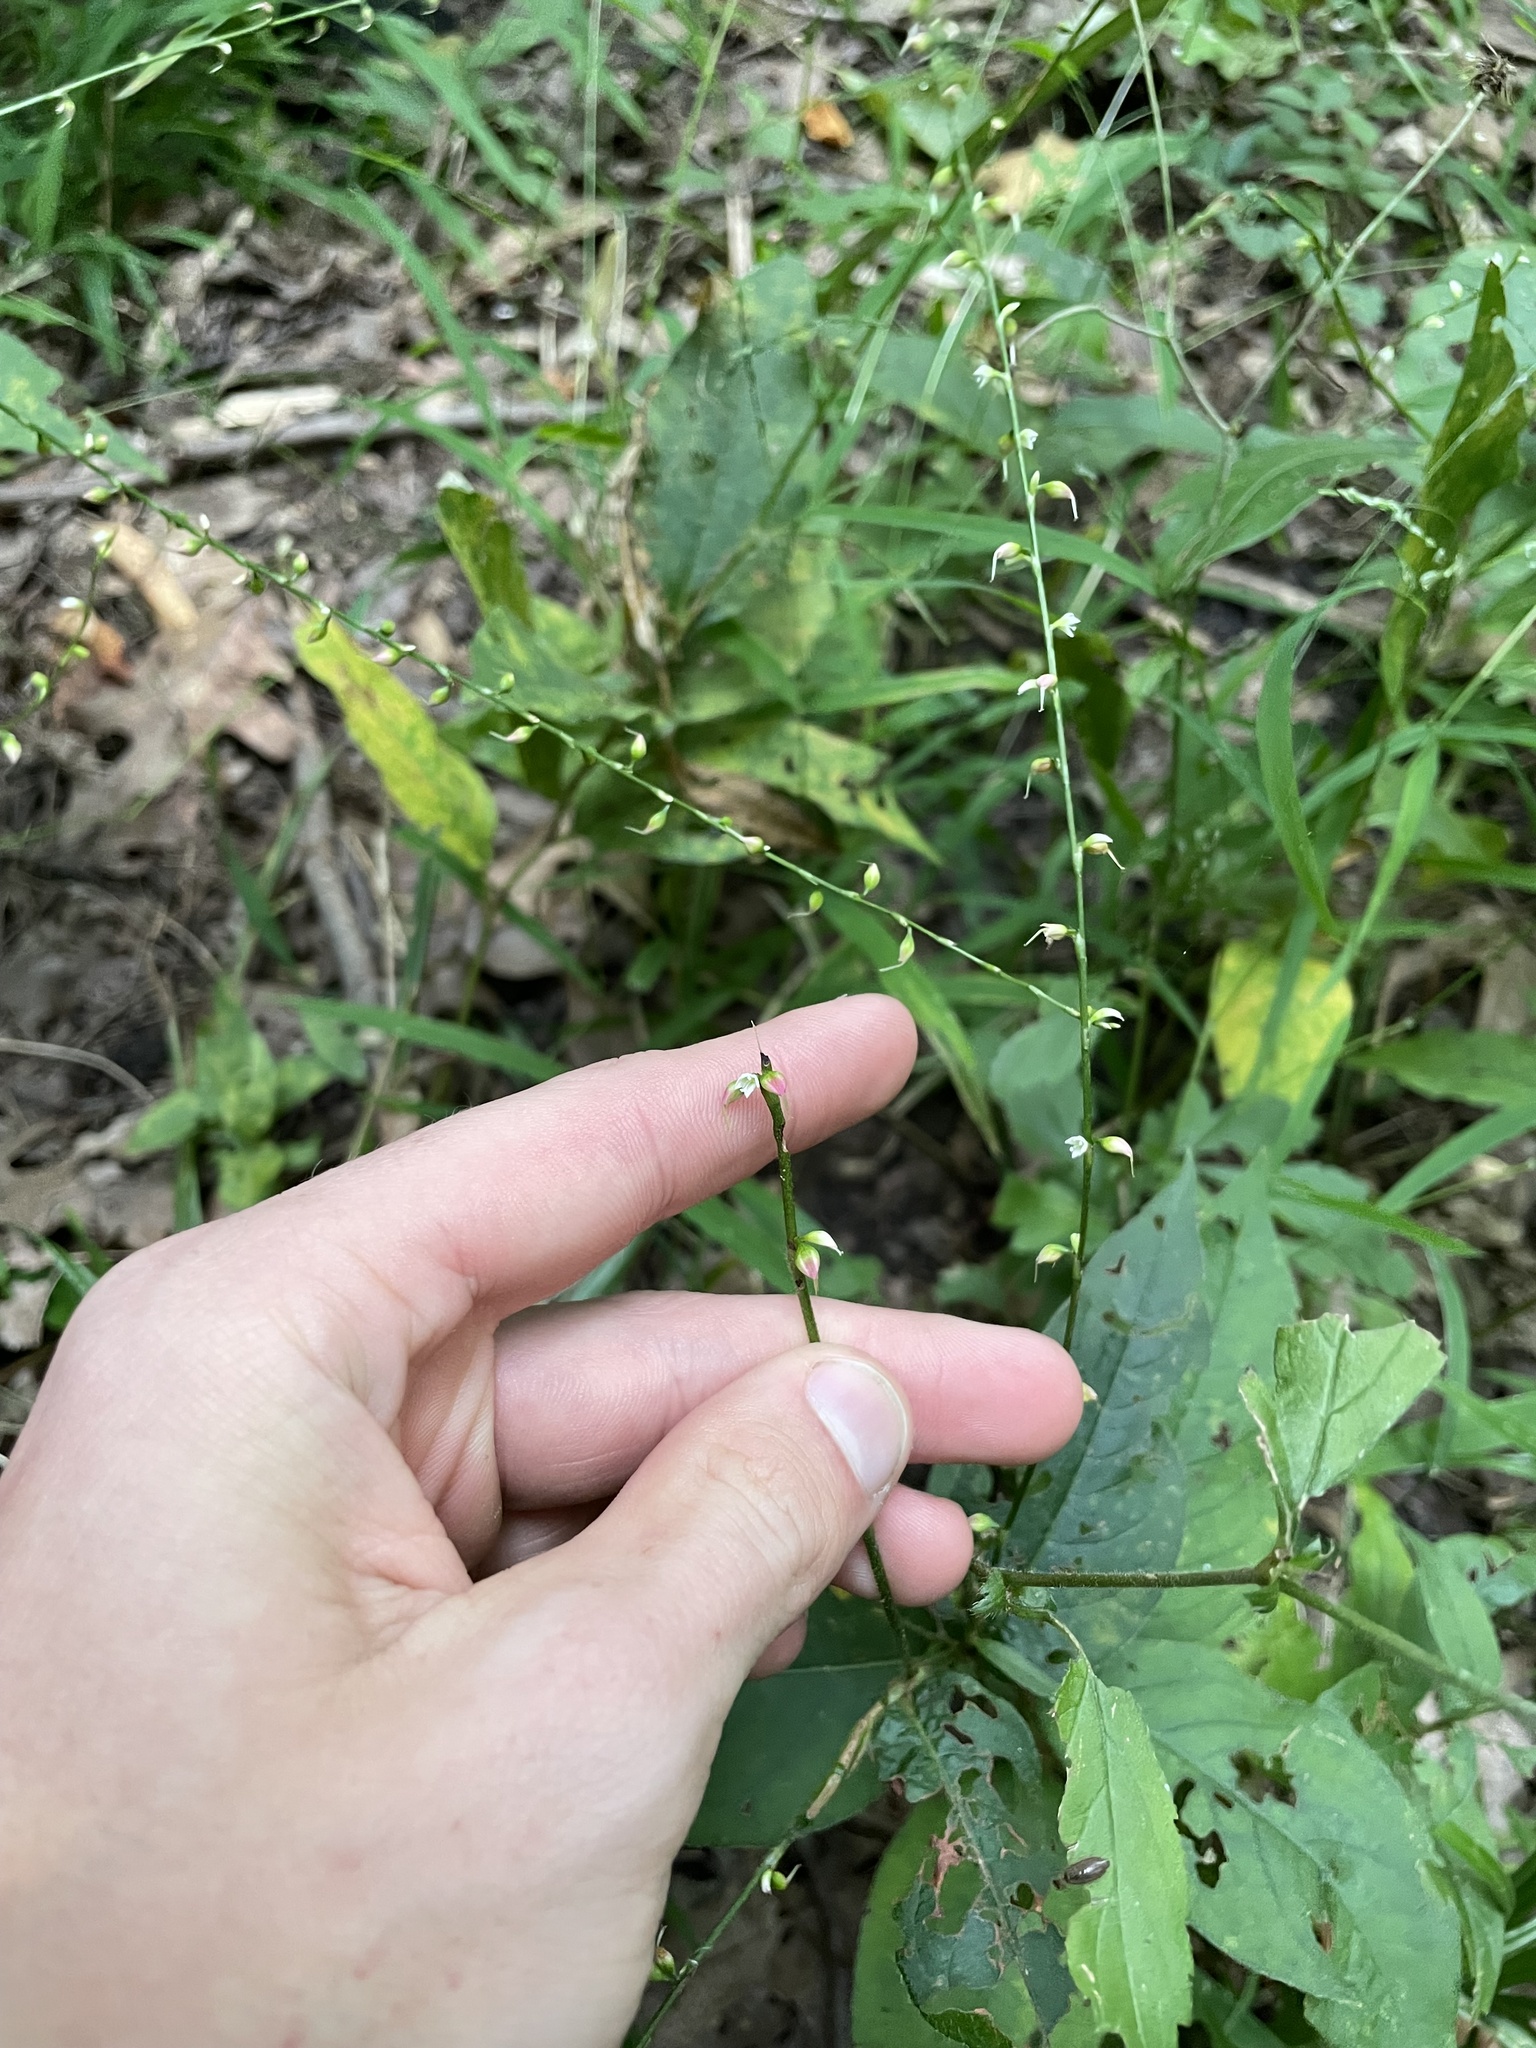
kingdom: Plantae
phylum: Tracheophyta
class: Magnoliopsida
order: Caryophyllales
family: Polygonaceae
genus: Persicaria
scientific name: Persicaria virginiana
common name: Jumpseed
